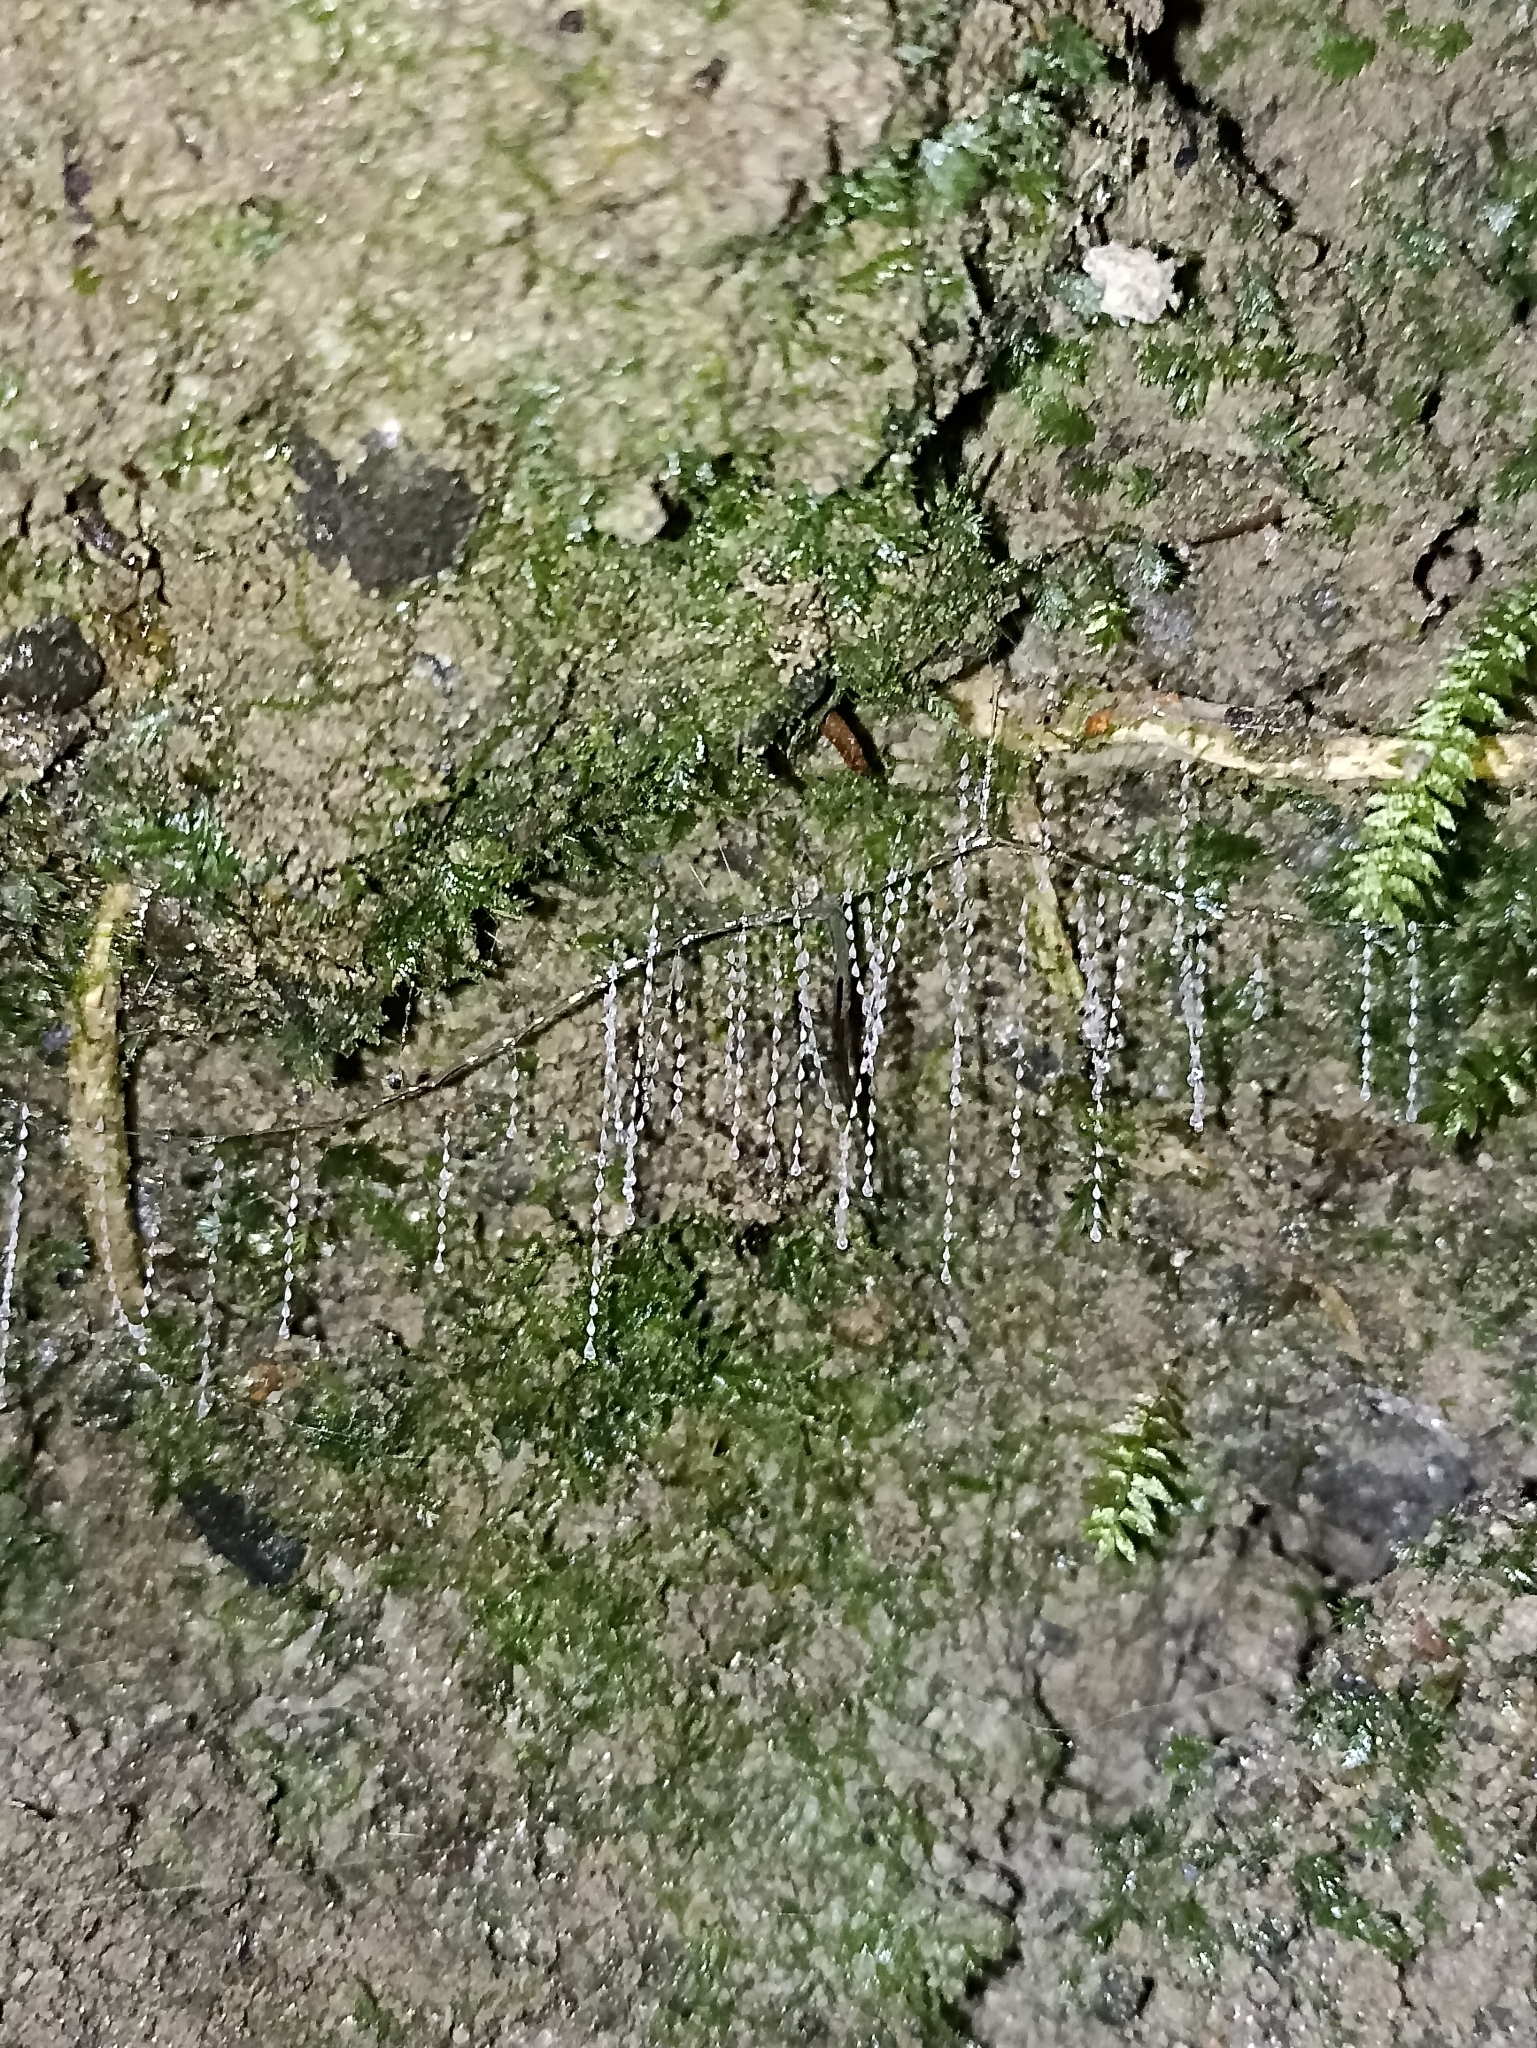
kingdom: Animalia
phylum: Arthropoda
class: Insecta
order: Diptera
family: Keroplatidae
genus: Arachnocampa
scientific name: Arachnocampa luminosa
